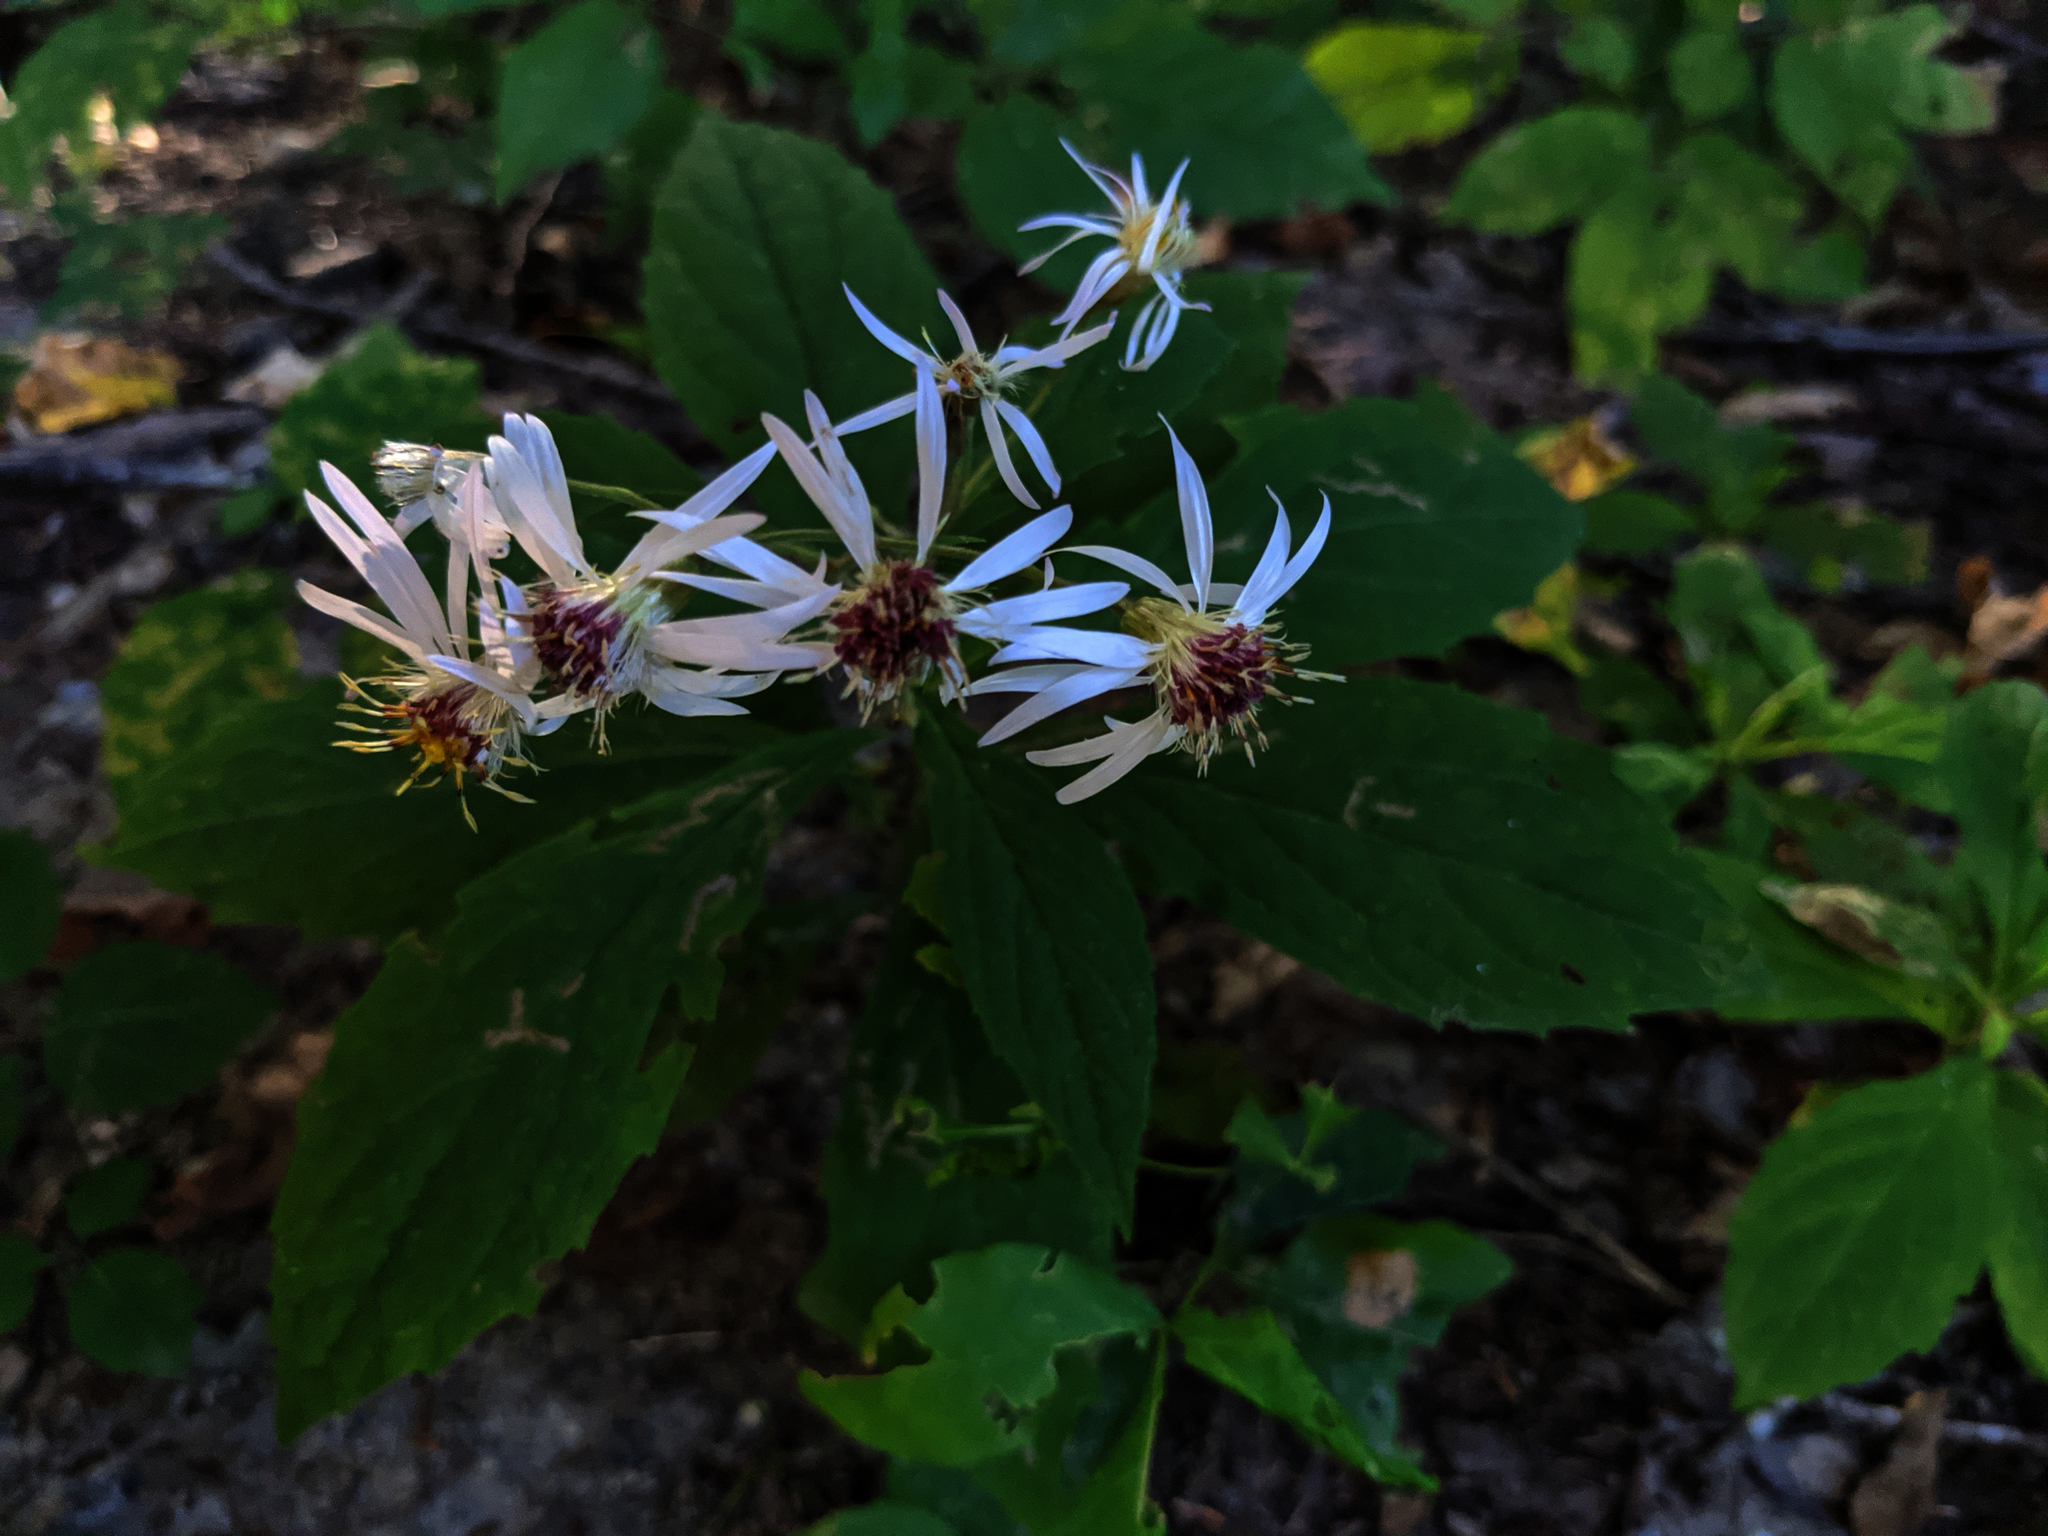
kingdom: Plantae
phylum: Tracheophyta
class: Magnoliopsida
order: Asterales
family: Asteraceae
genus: Oclemena
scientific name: Oclemena acuminata
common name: Mountain aster
